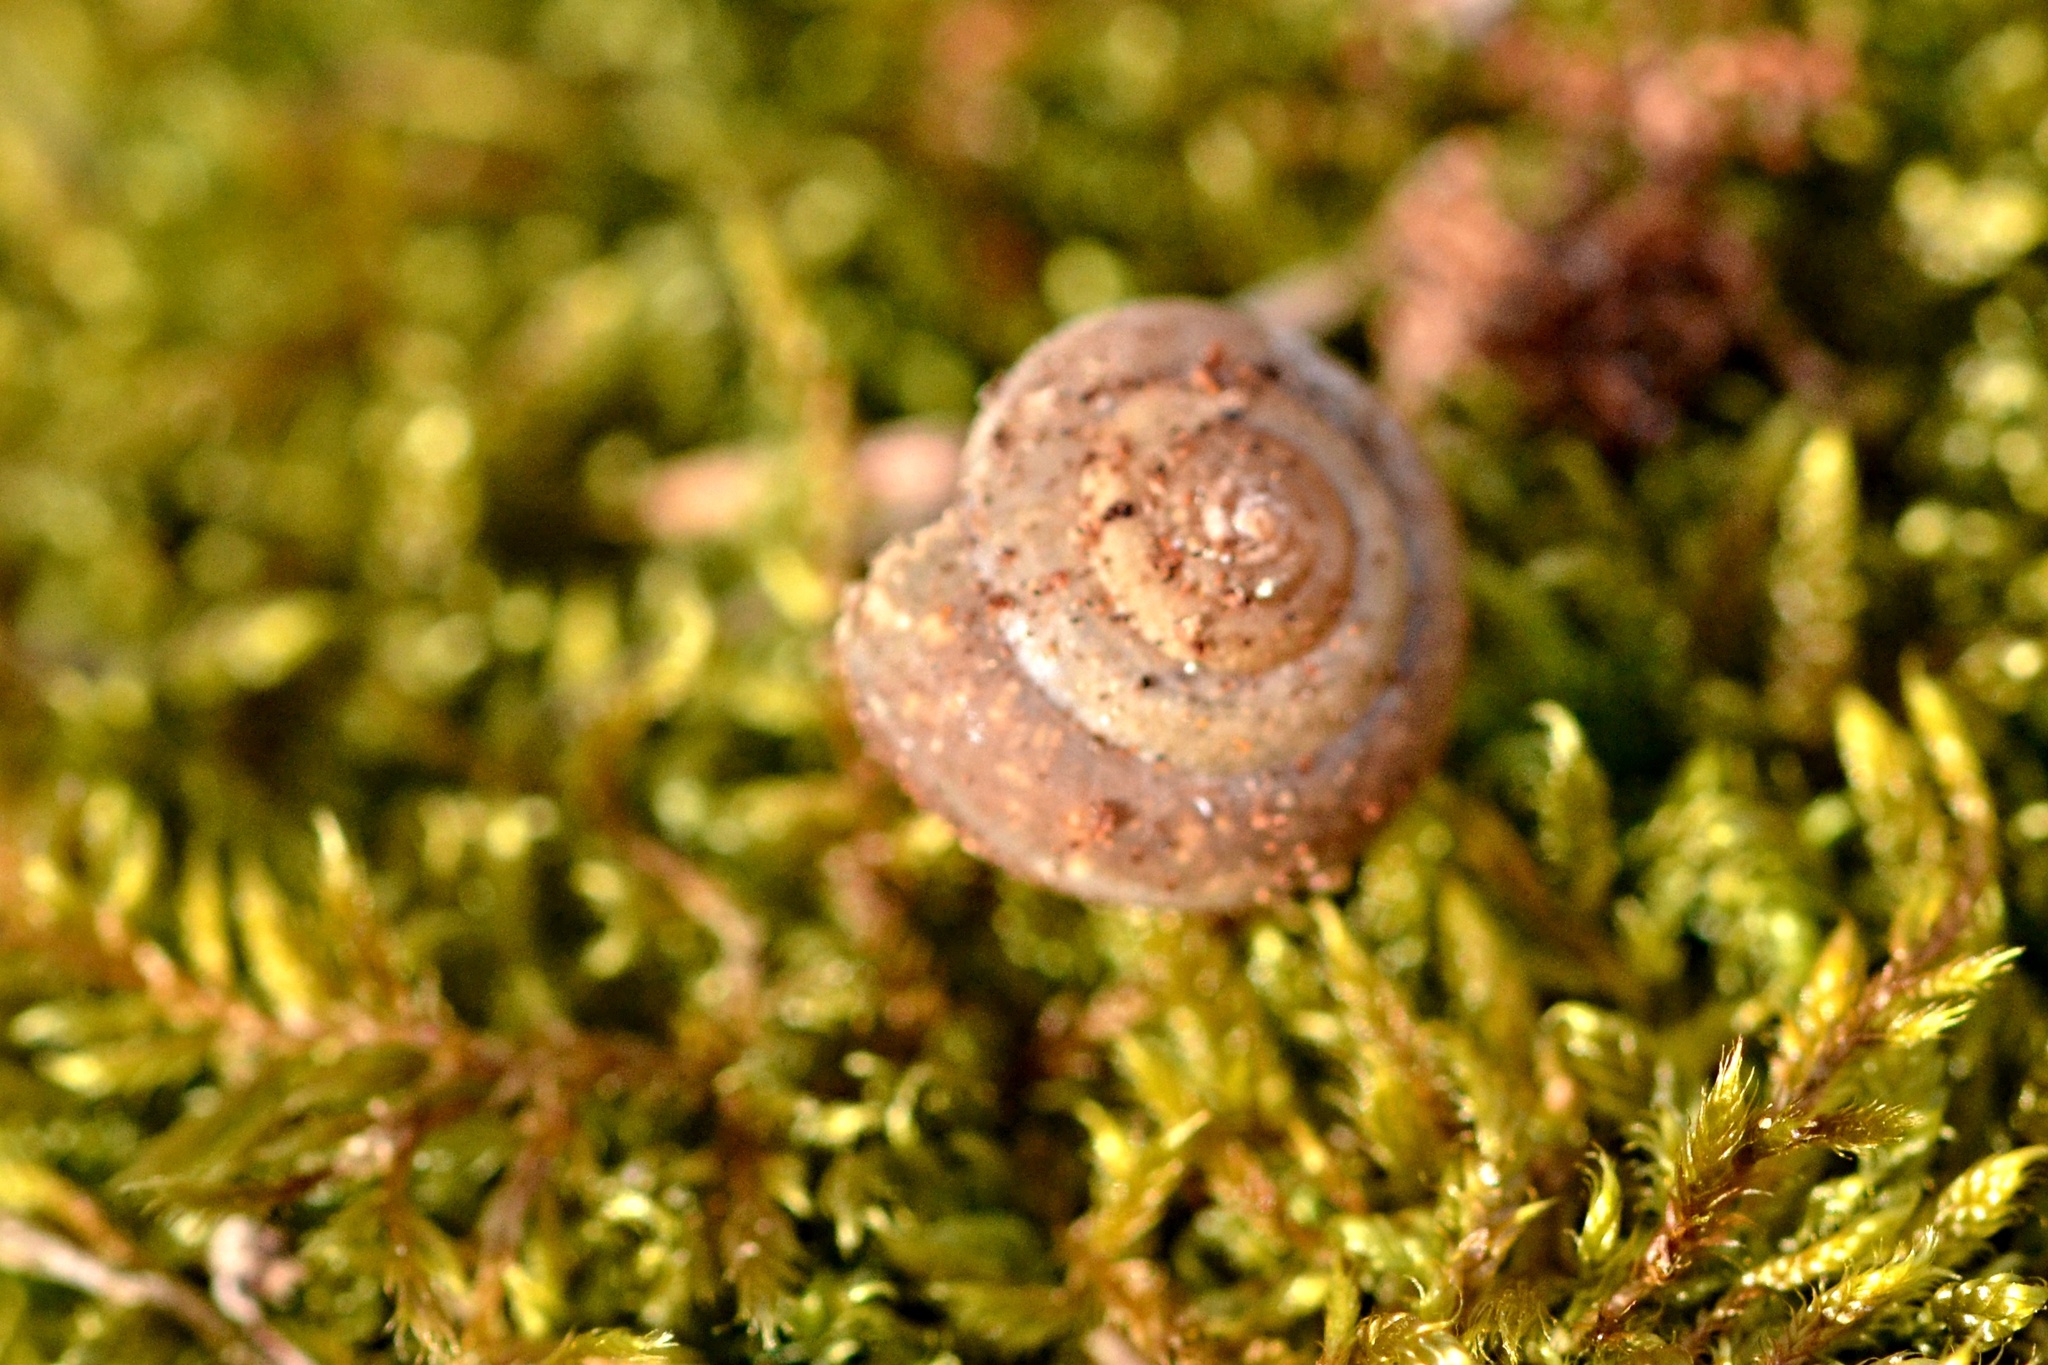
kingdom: Animalia
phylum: Mollusca
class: Gastropoda
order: Stylommatophora
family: Hygromiidae
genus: Monachoides
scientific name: Monachoides incarnatus
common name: Incarnate snail
